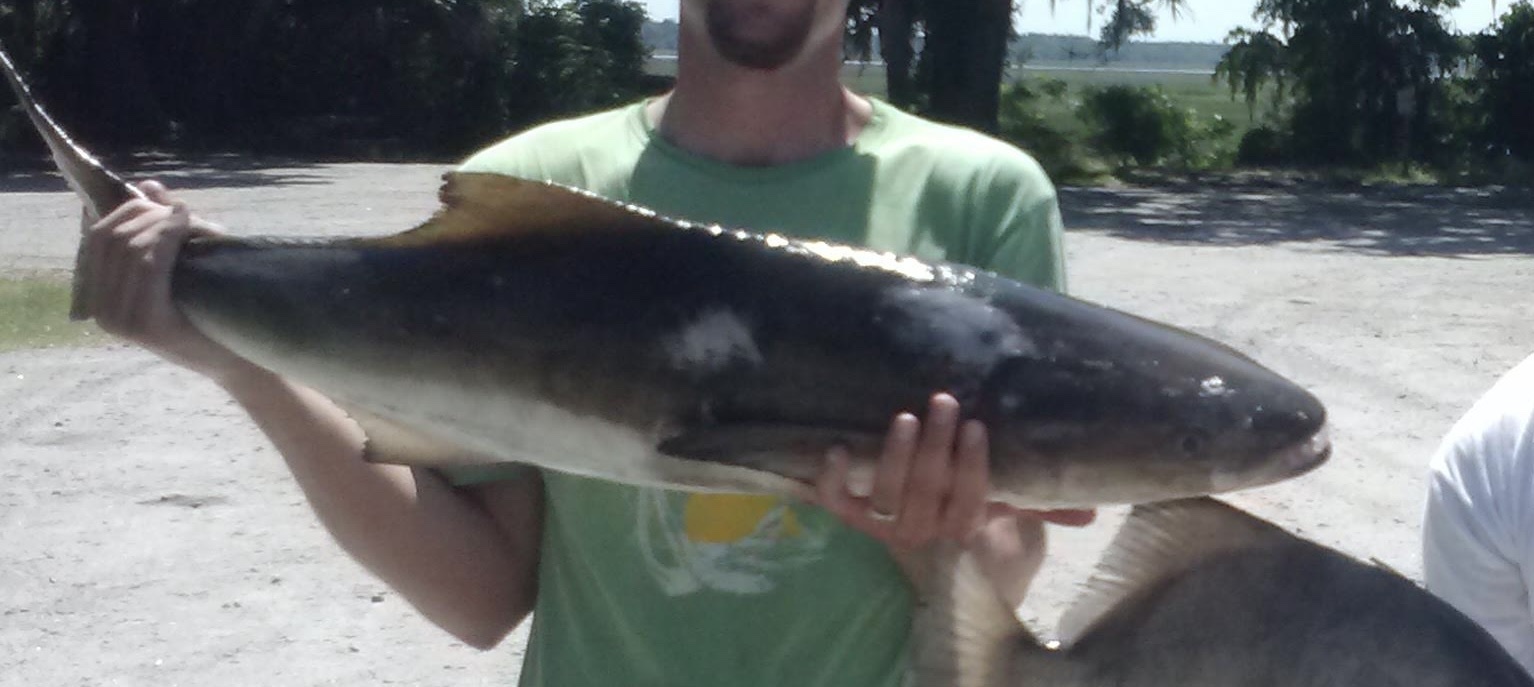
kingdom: Animalia
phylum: Chordata
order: Perciformes
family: Rachycentridae
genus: Rachycentron
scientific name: Rachycentron canadum
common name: Cobia
